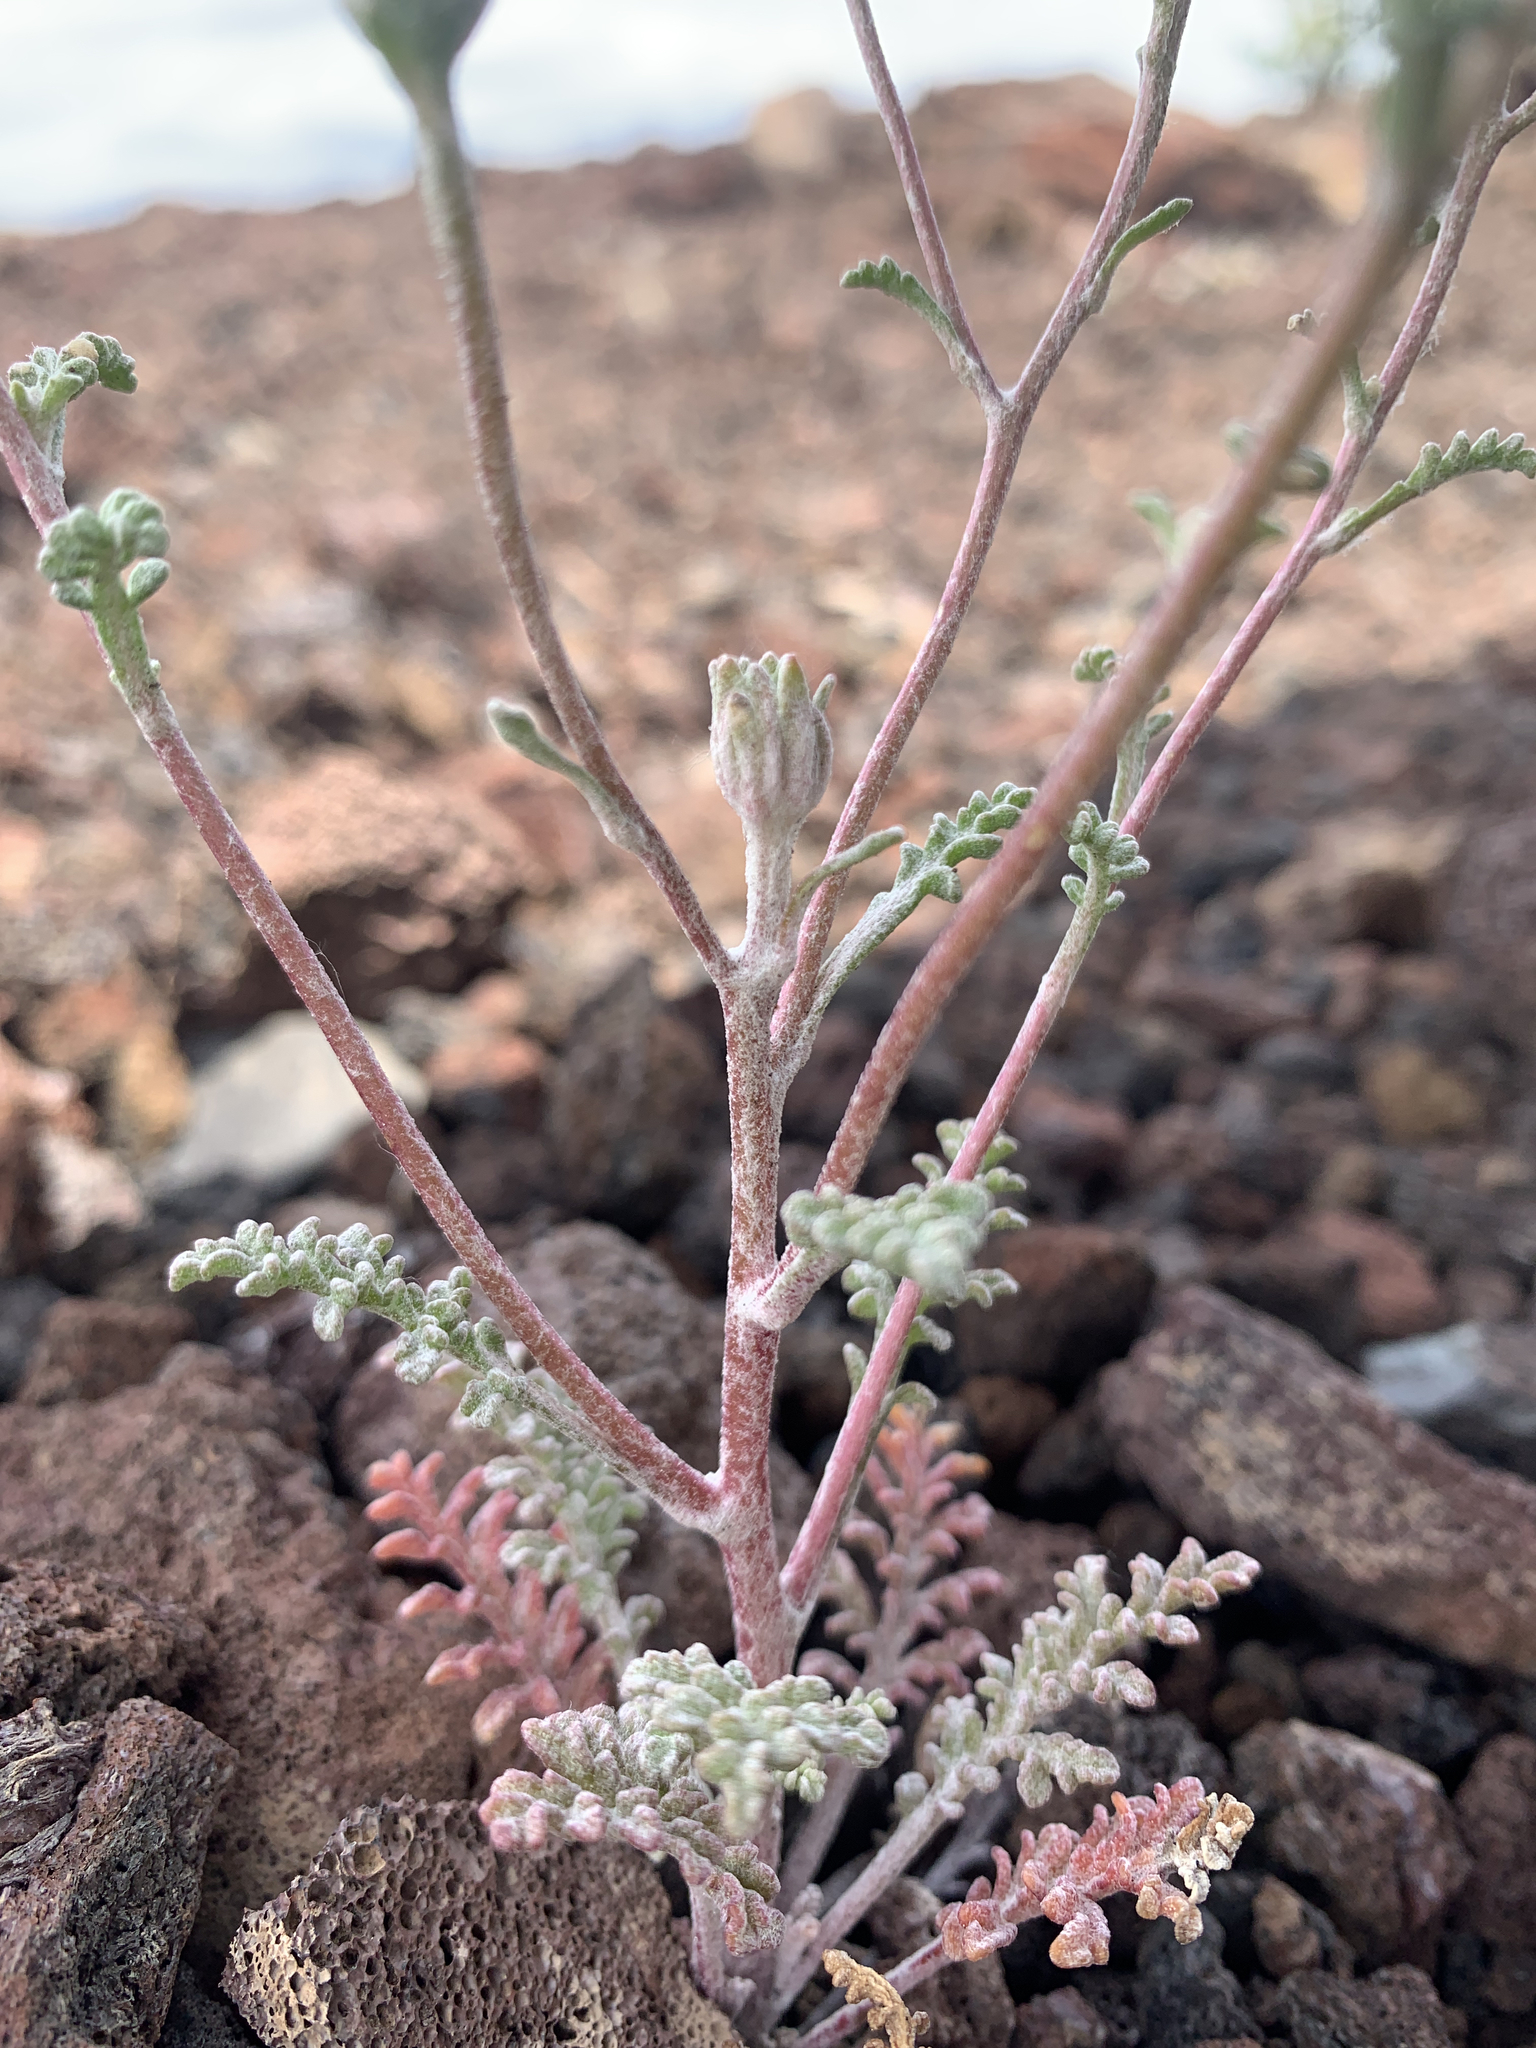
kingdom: Plantae
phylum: Tracheophyta
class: Magnoliopsida
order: Asterales
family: Asteraceae
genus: Chaenactis
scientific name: Chaenactis douglasii
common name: Hoary pincushion
